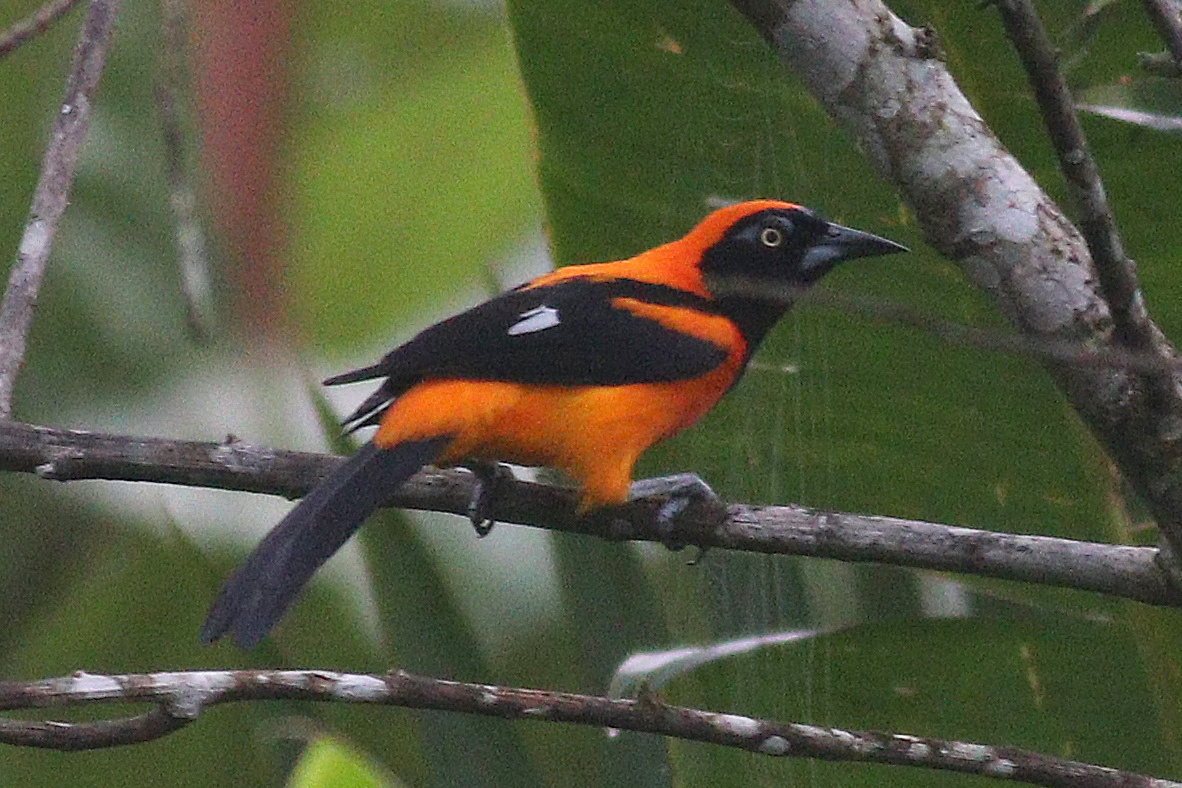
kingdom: Animalia
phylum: Chordata
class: Aves
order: Passeriformes
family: Icteridae
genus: Icterus
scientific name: Icterus icterus
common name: Venezuelan troupial
